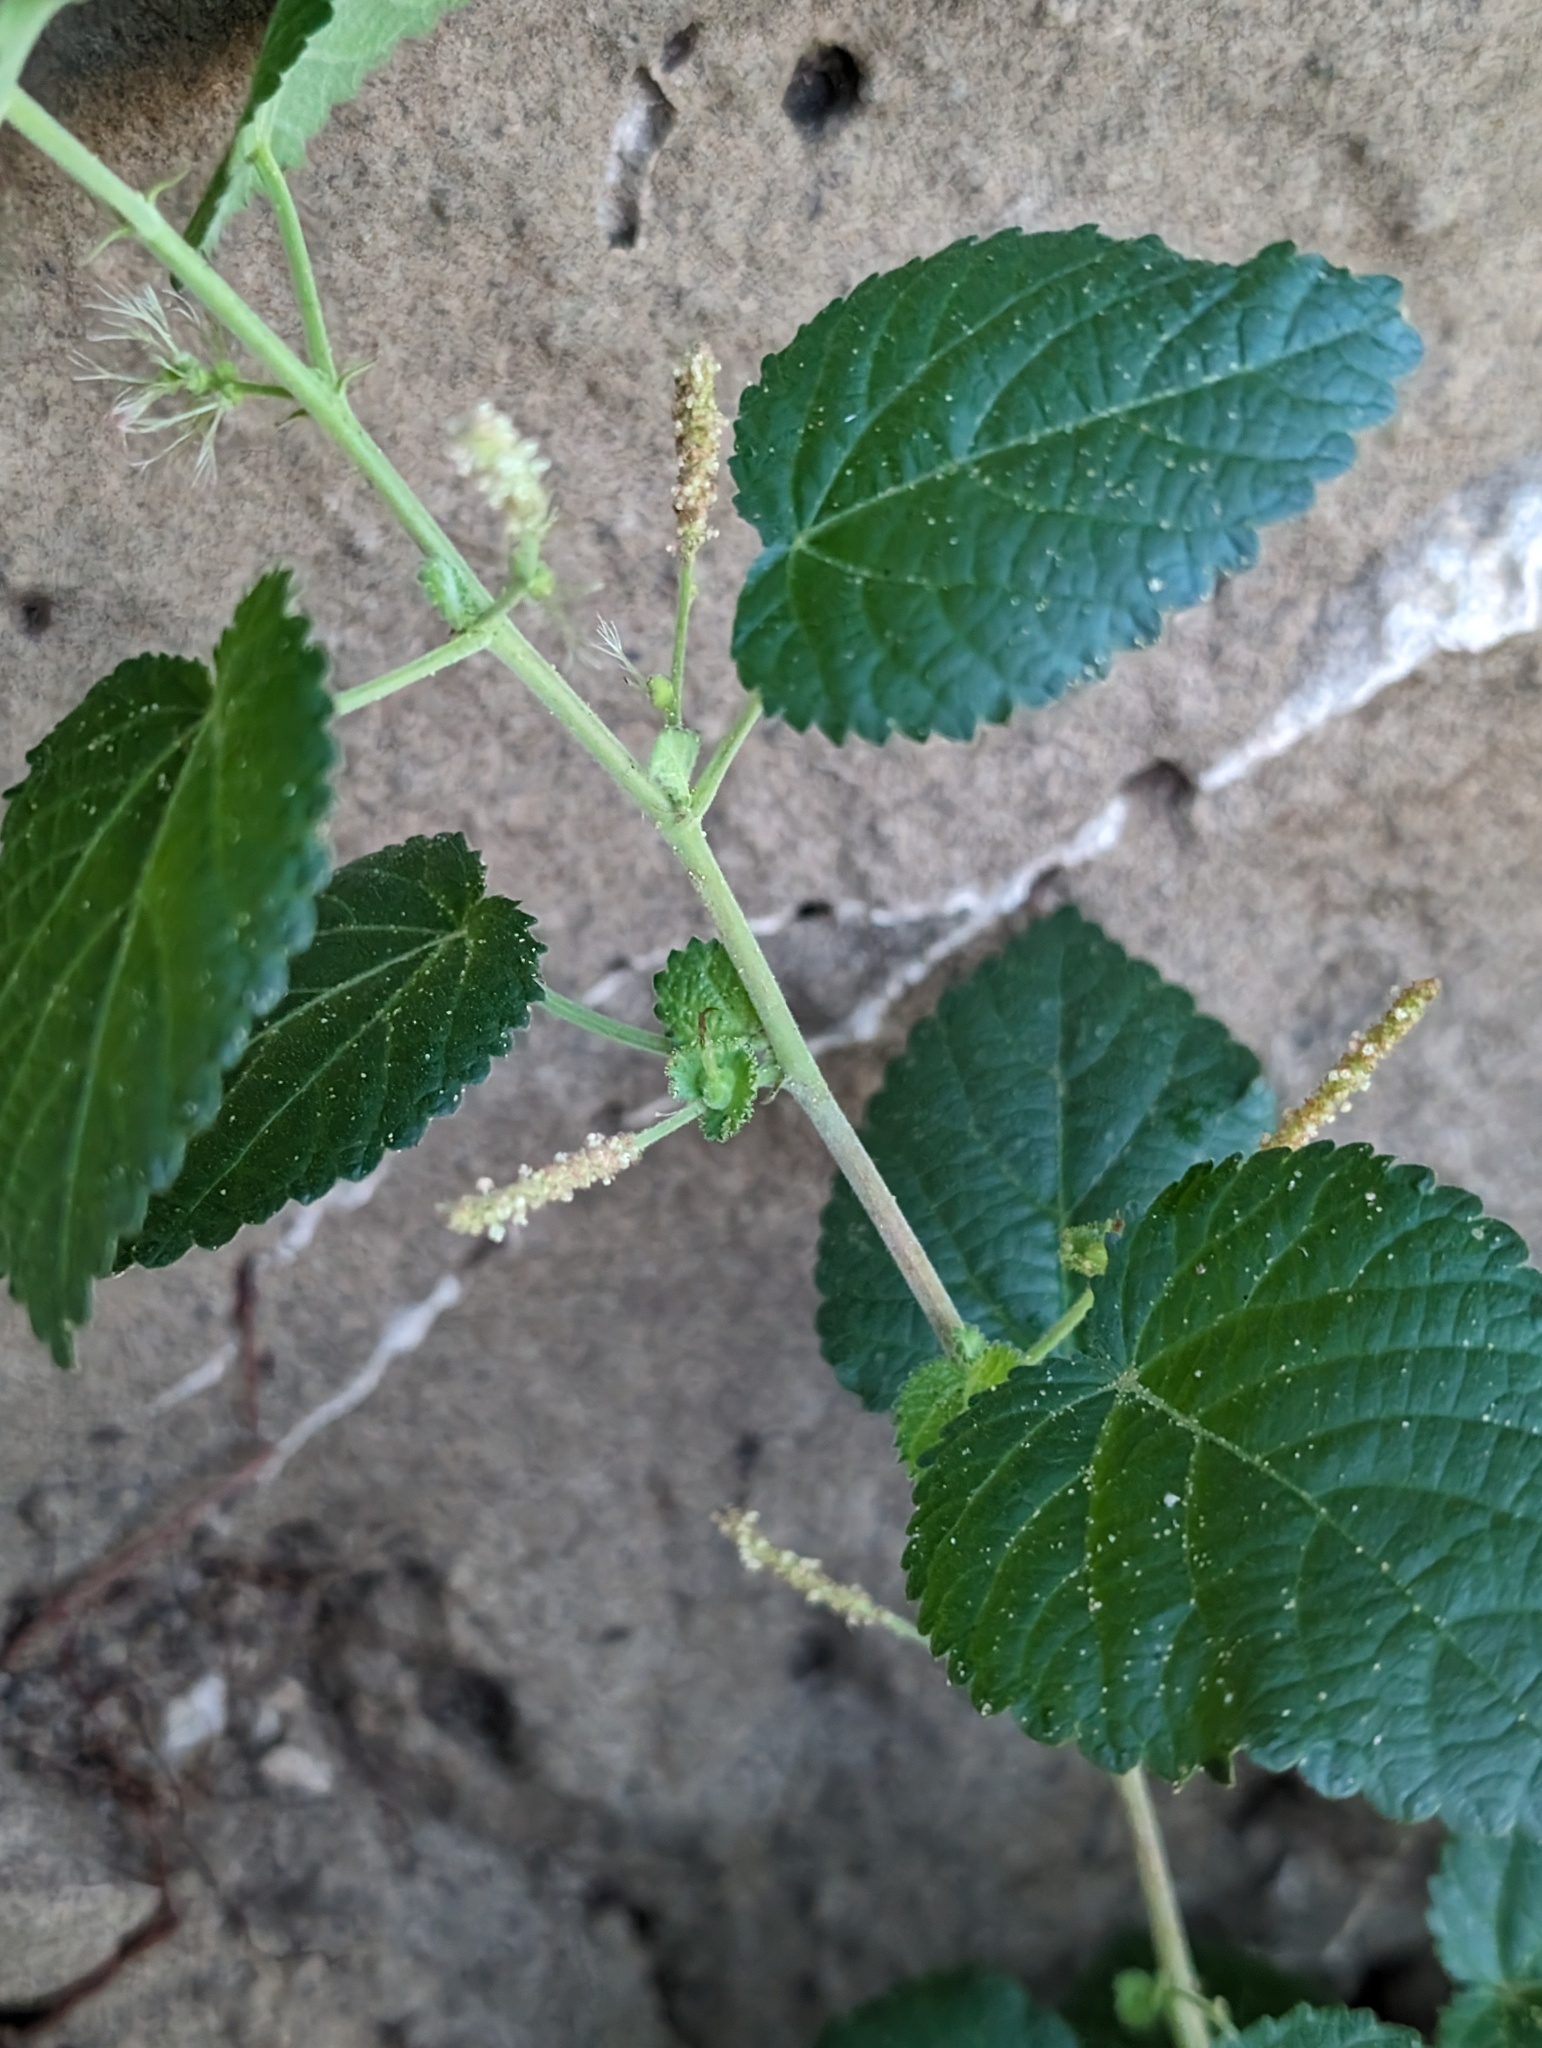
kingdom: Plantae
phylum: Tracheophyta
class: Magnoliopsida
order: Malpighiales
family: Euphorbiaceae
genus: Acalypha
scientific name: Acalypha californica
